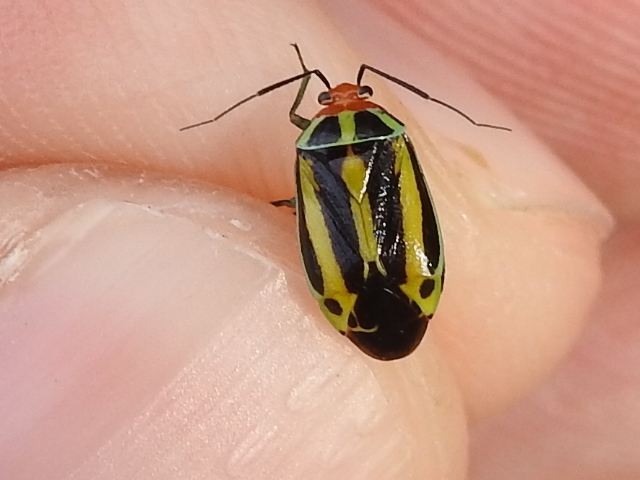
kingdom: Animalia
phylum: Arthropoda
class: Insecta
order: Hemiptera
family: Miridae
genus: Poecilocapsus
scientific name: Poecilocapsus lineatus
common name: Four-lined plant bug
